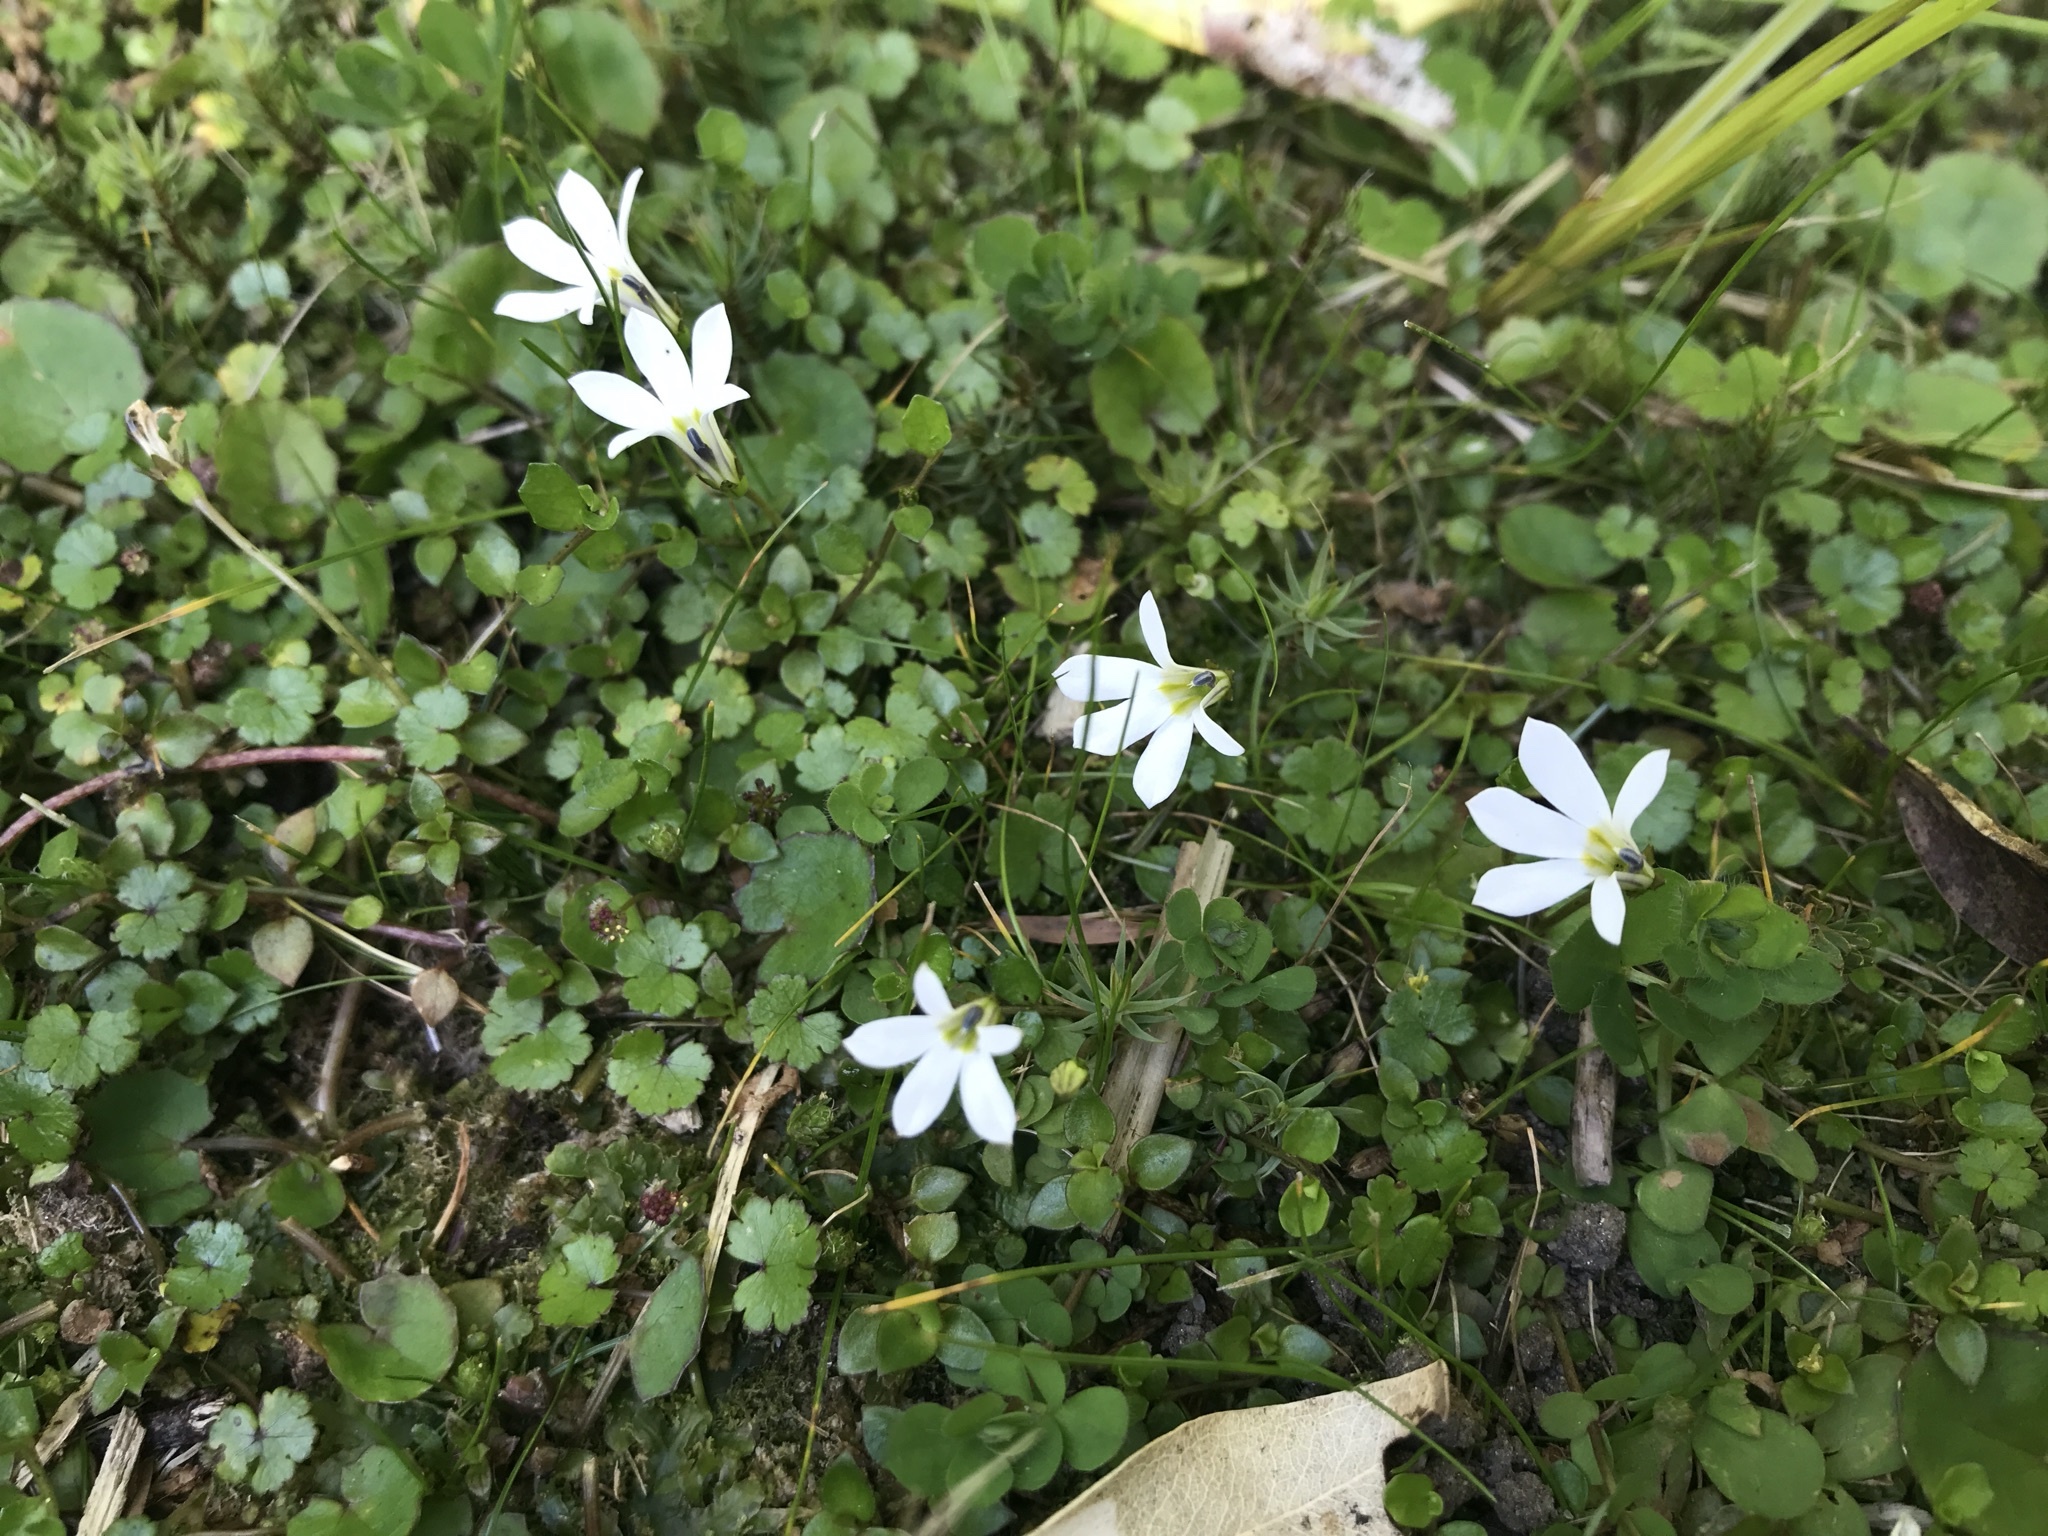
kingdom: Plantae
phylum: Tracheophyta
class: Magnoliopsida
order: Asterales
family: Campanulaceae
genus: Lobelia
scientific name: Lobelia angulata
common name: Lawn lobelia
